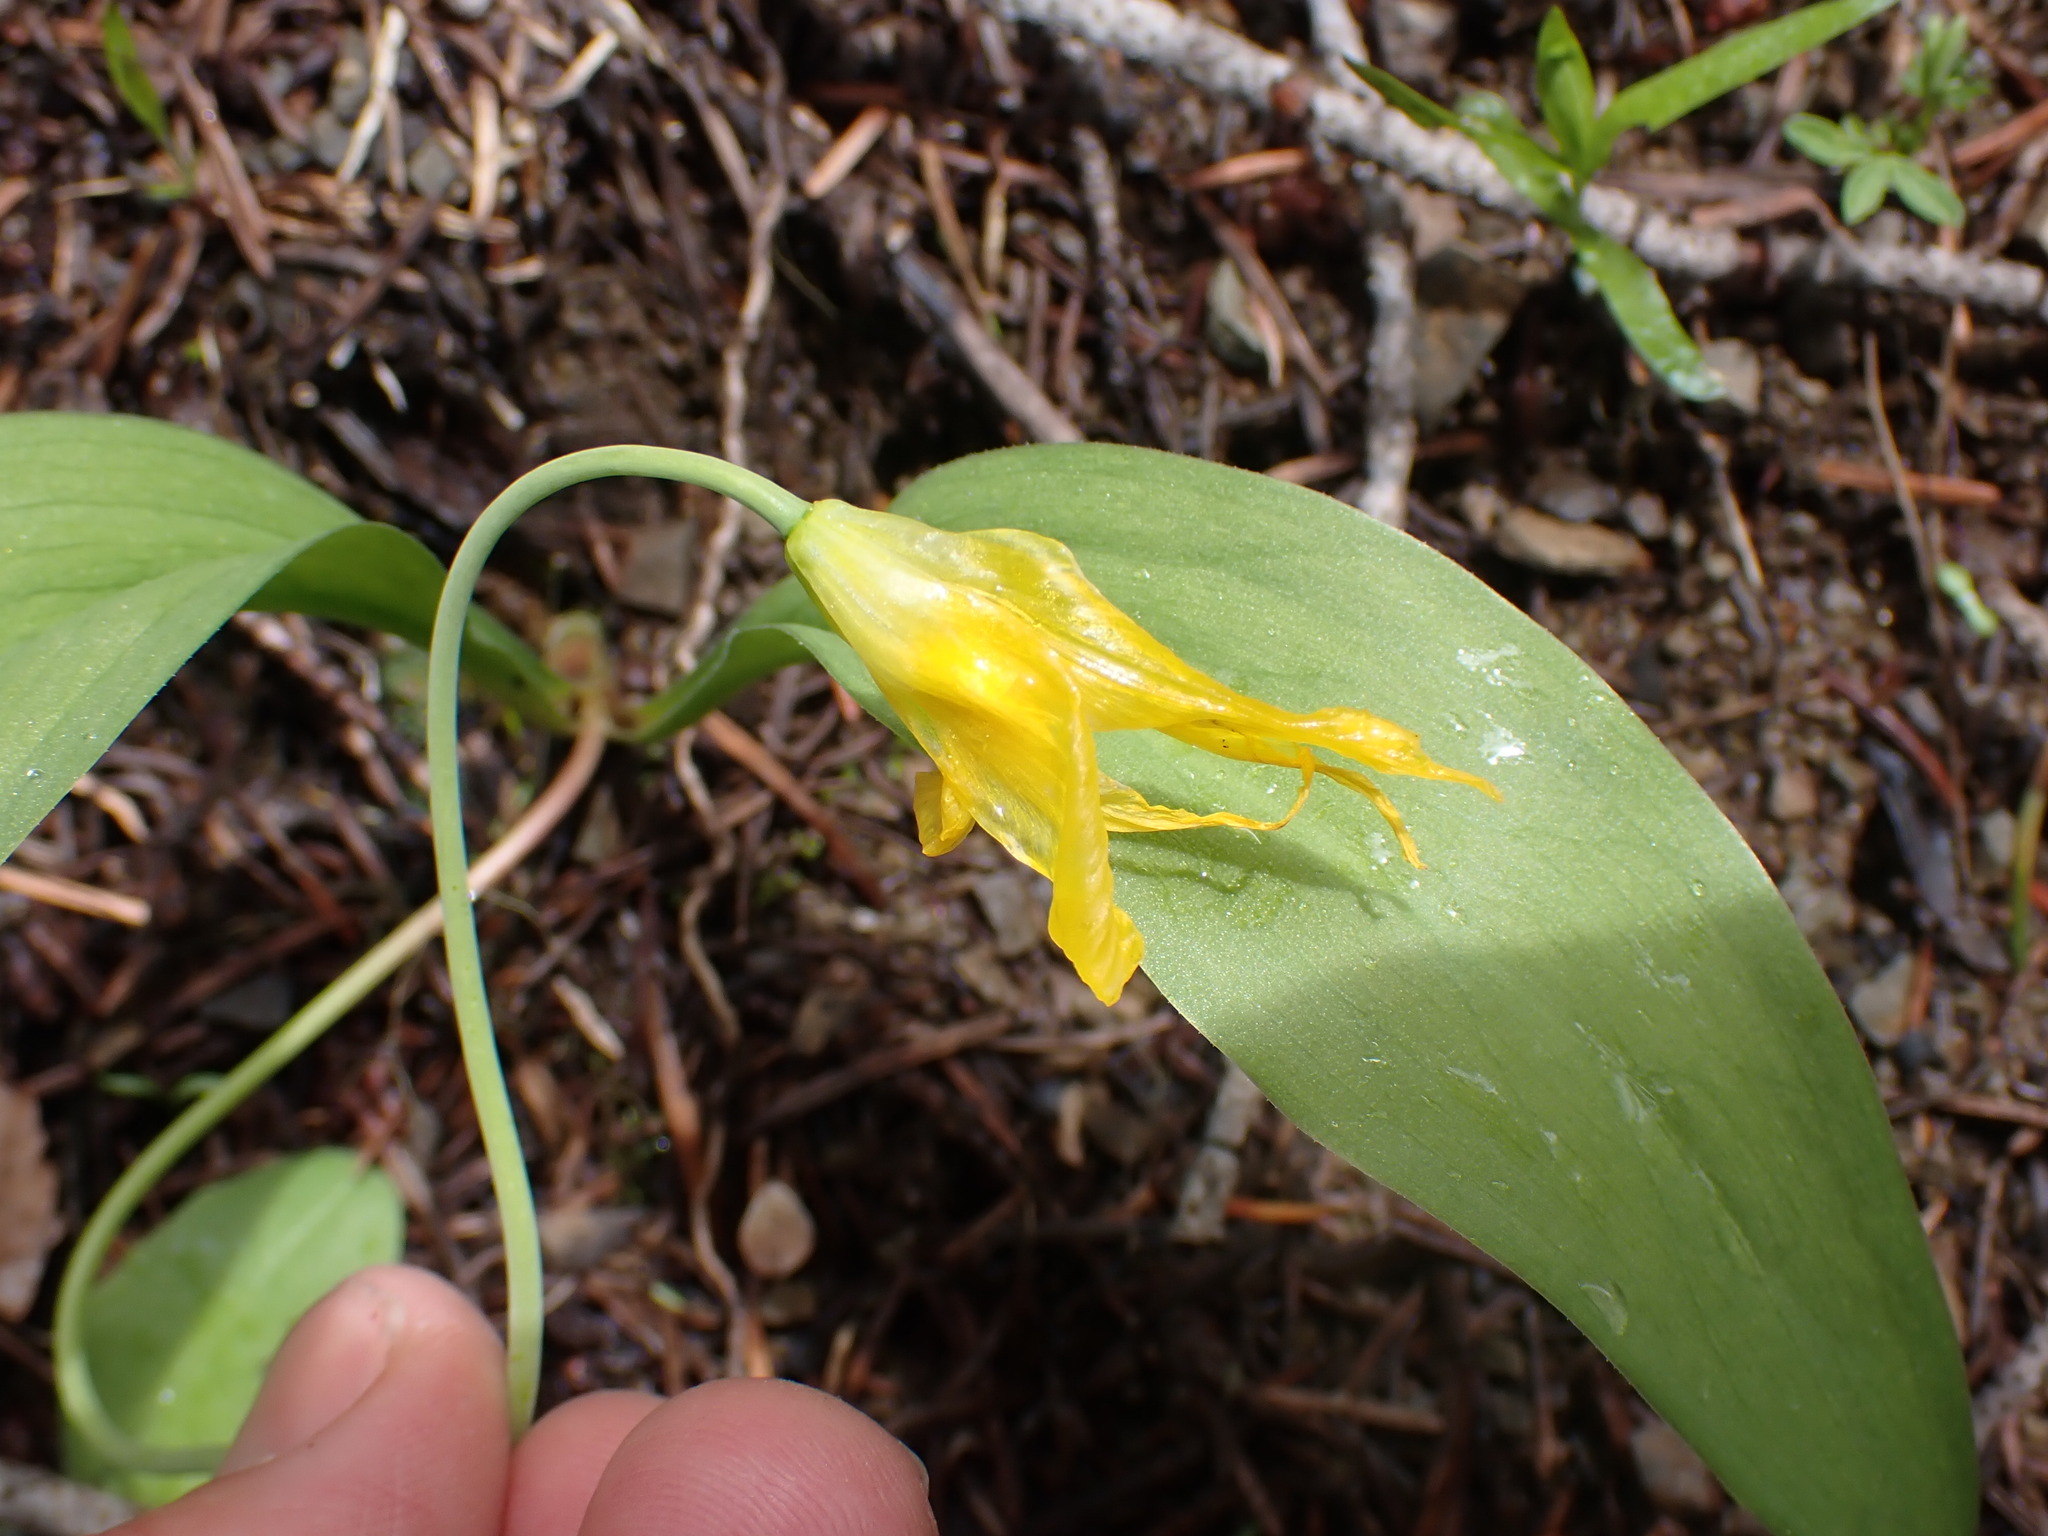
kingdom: Plantae
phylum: Tracheophyta
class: Liliopsida
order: Liliales
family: Liliaceae
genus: Erythronium
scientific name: Erythronium grandiflorum
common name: Avalanche-lily
